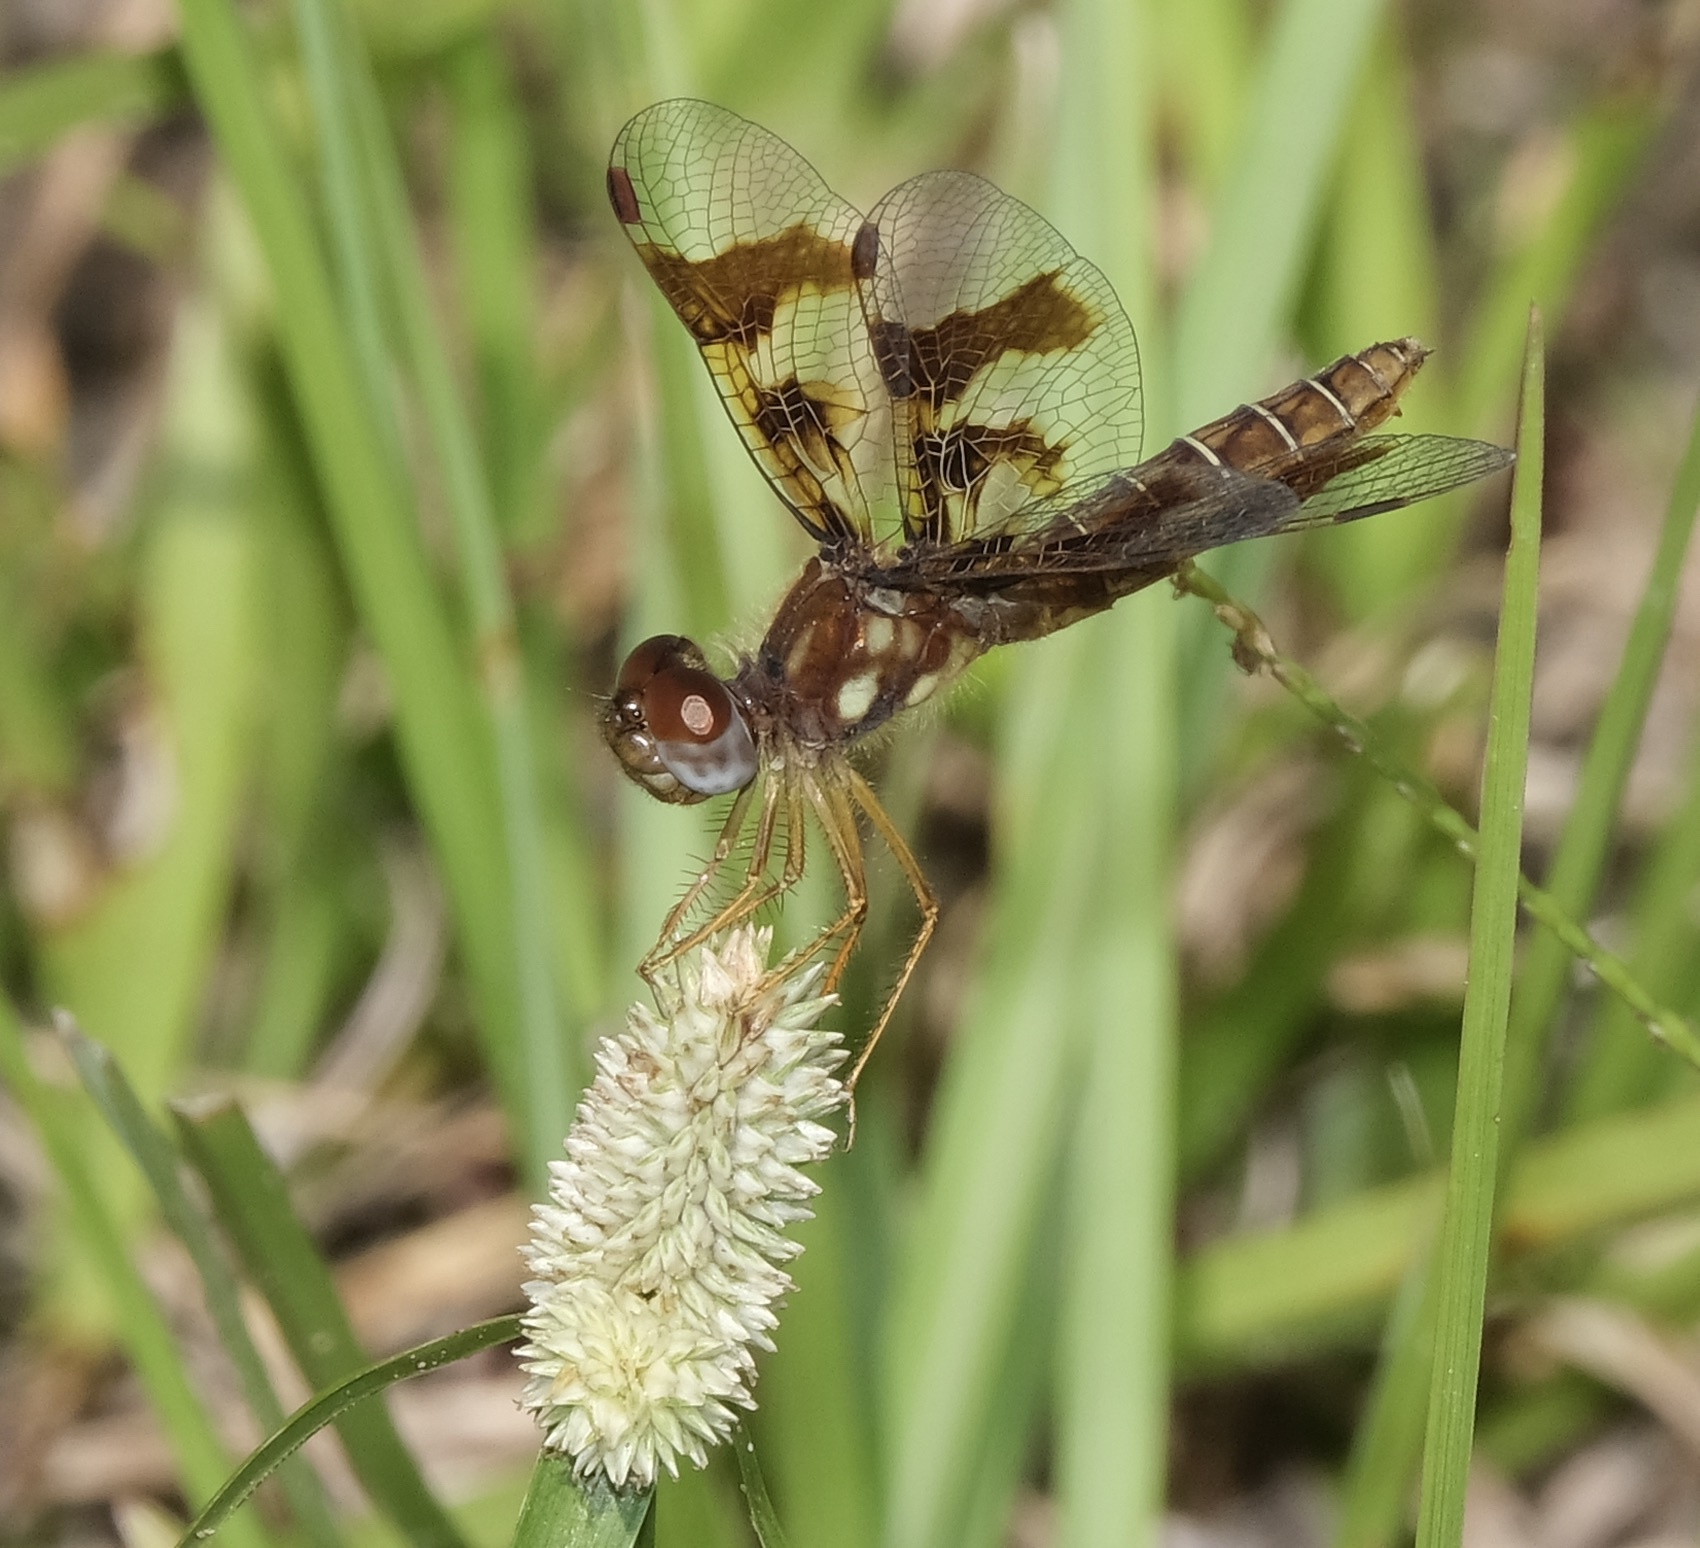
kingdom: Animalia
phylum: Arthropoda
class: Insecta
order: Odonata
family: Libellulidae
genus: Perithemis
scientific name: Perithemis tenera
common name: Eastern amberwing
